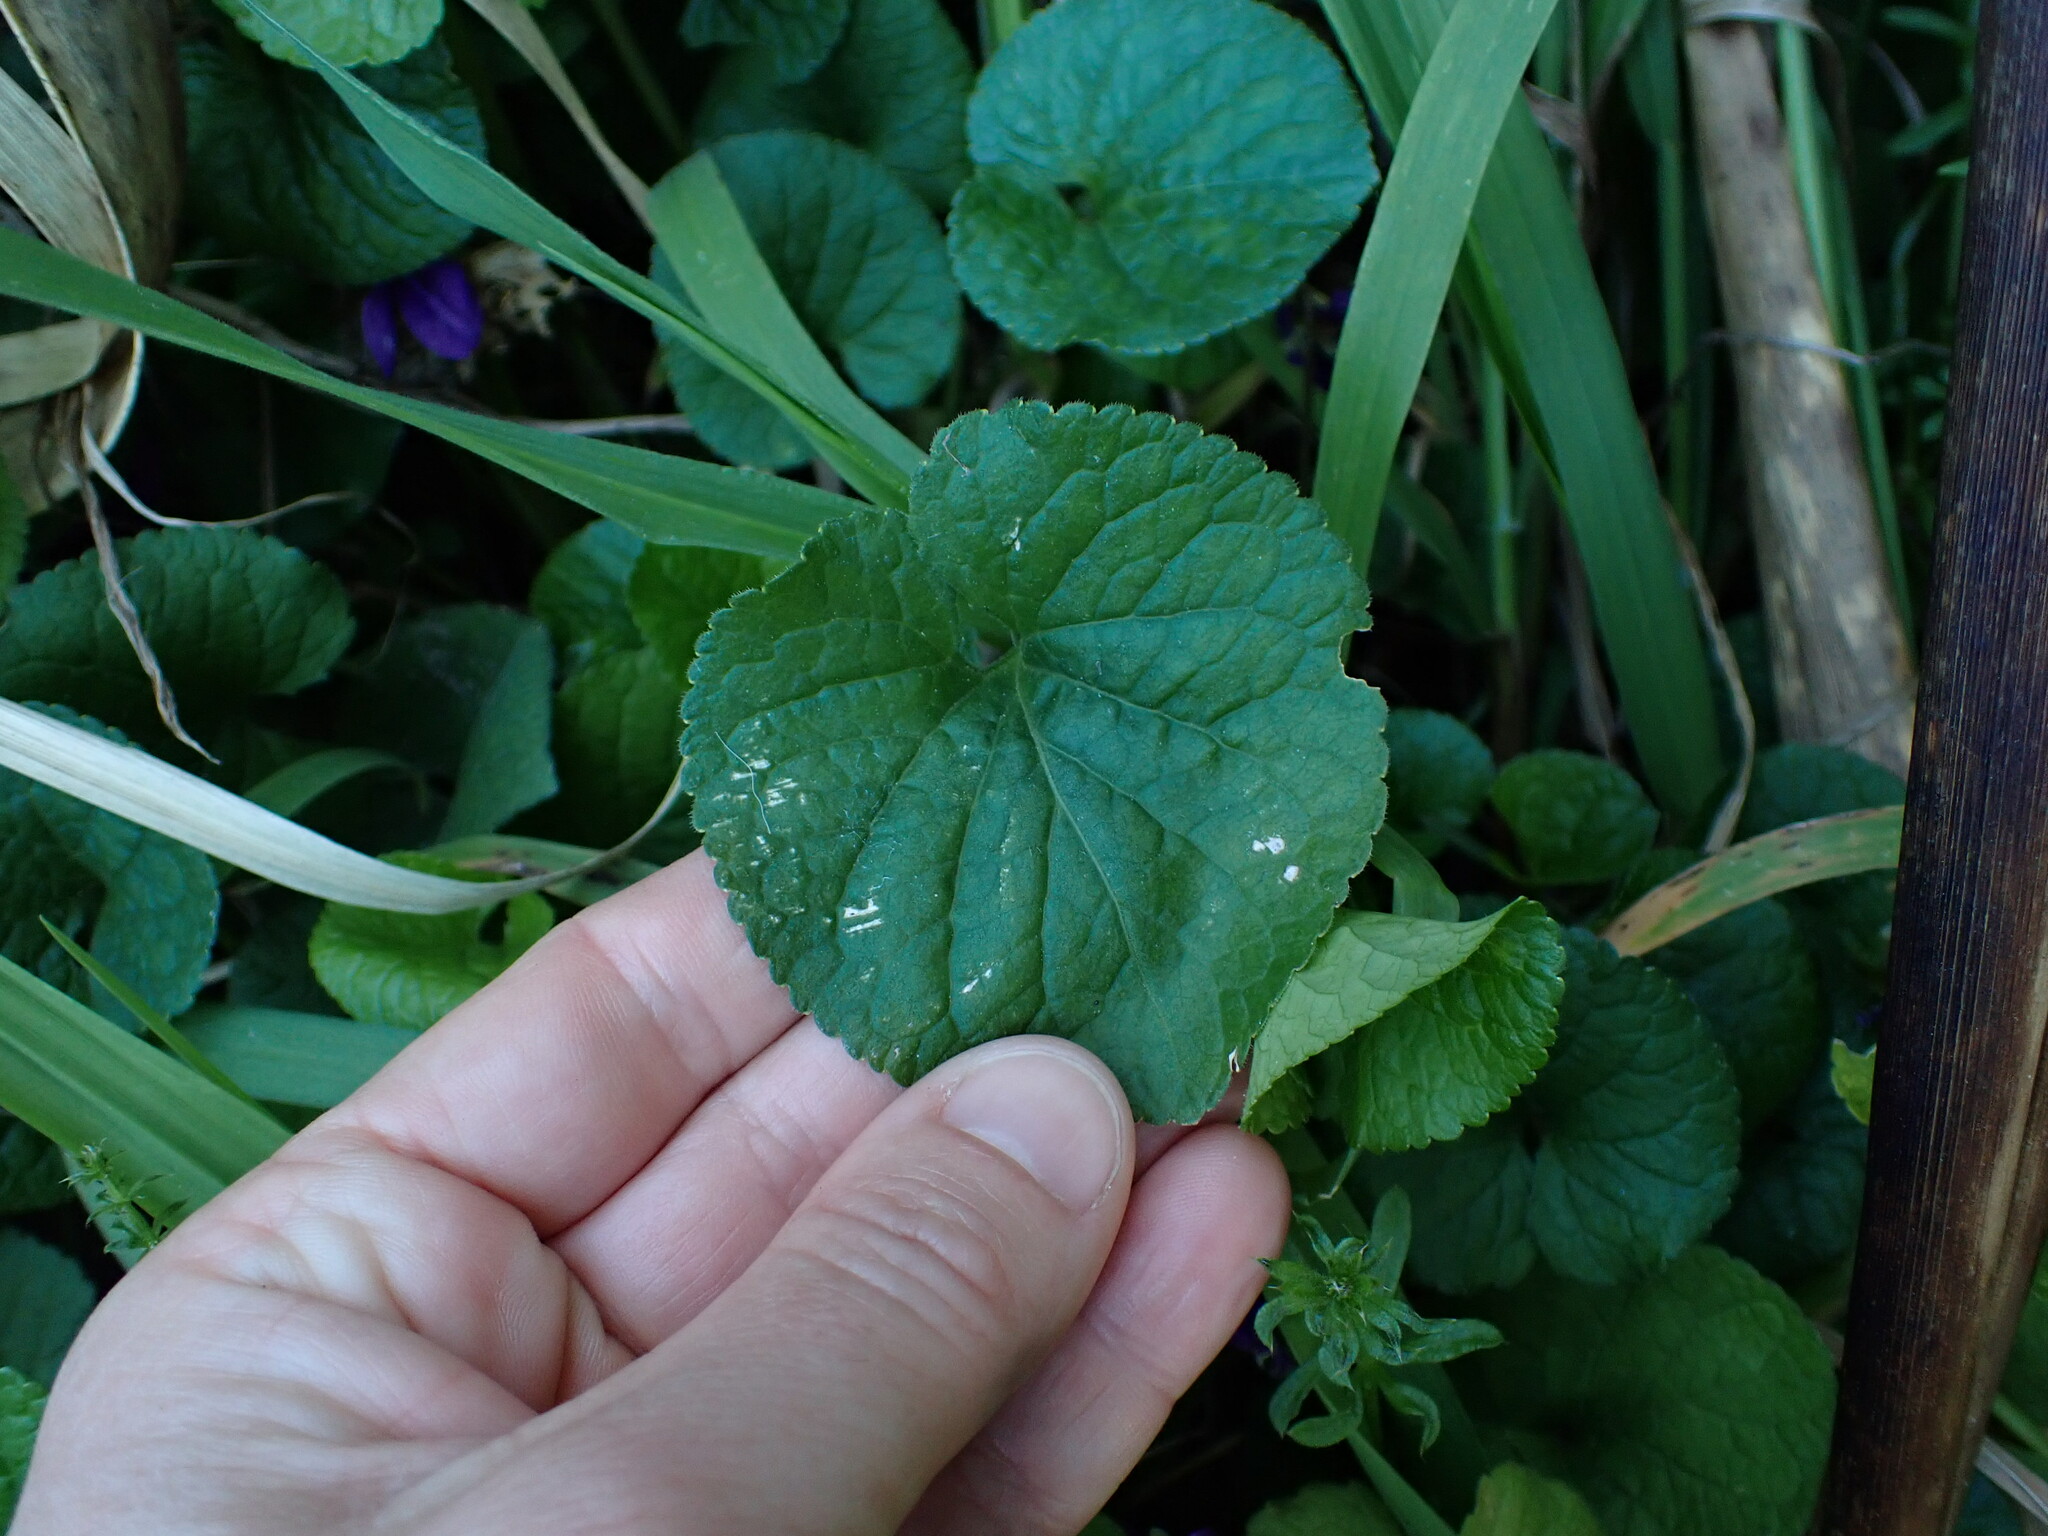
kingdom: Plantae
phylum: Tracheophyta
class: Magnoliopsida
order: Malpighiales
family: Violaceae
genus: Viola
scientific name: Viola odorata
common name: Sweet violet
